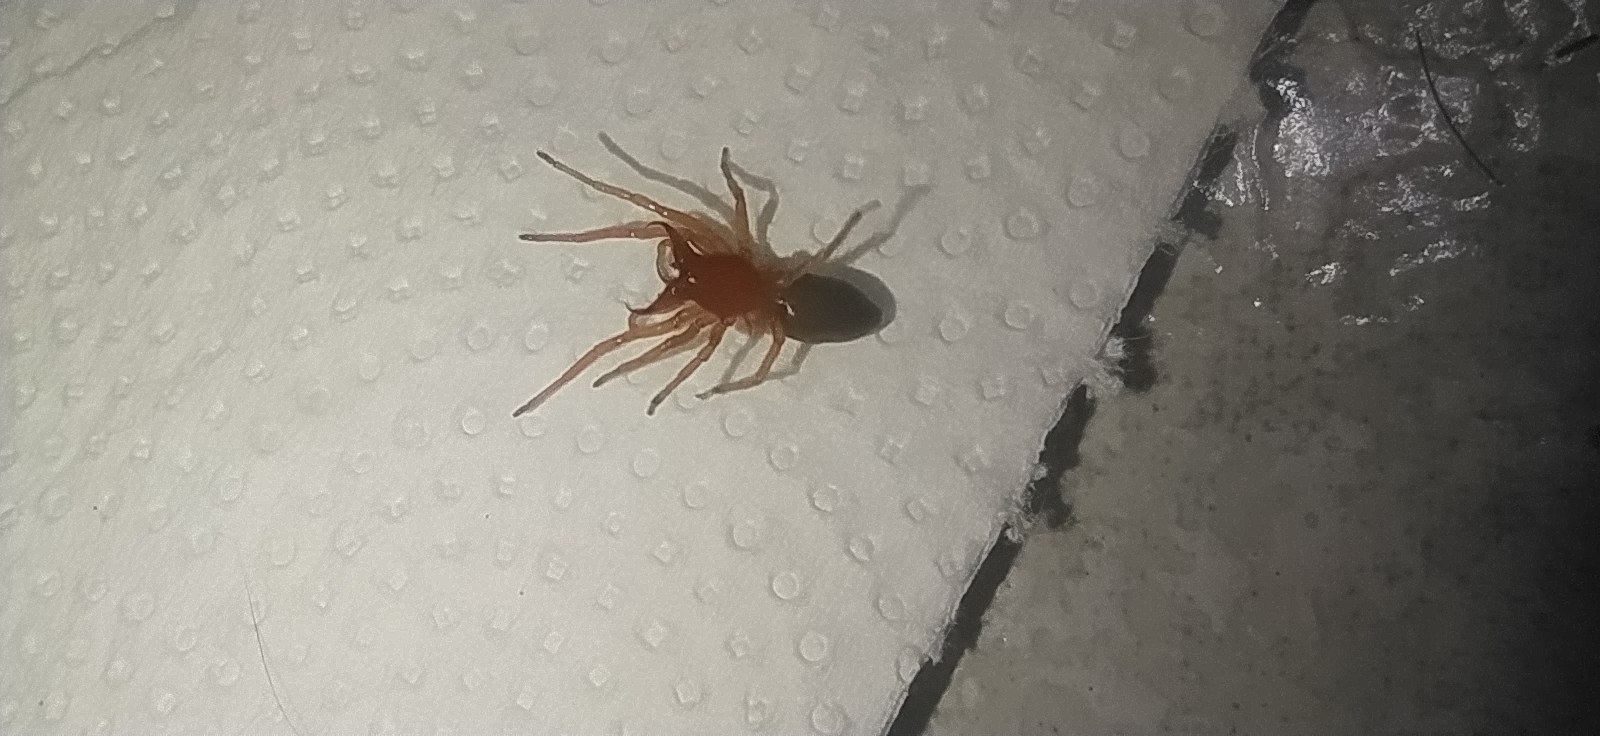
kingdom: Animalia
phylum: Arthropoda
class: Arachnida
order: Araneae
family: Dysderidae
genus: Dysdera
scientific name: Dysdera crocata
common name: Woodlouse spider
